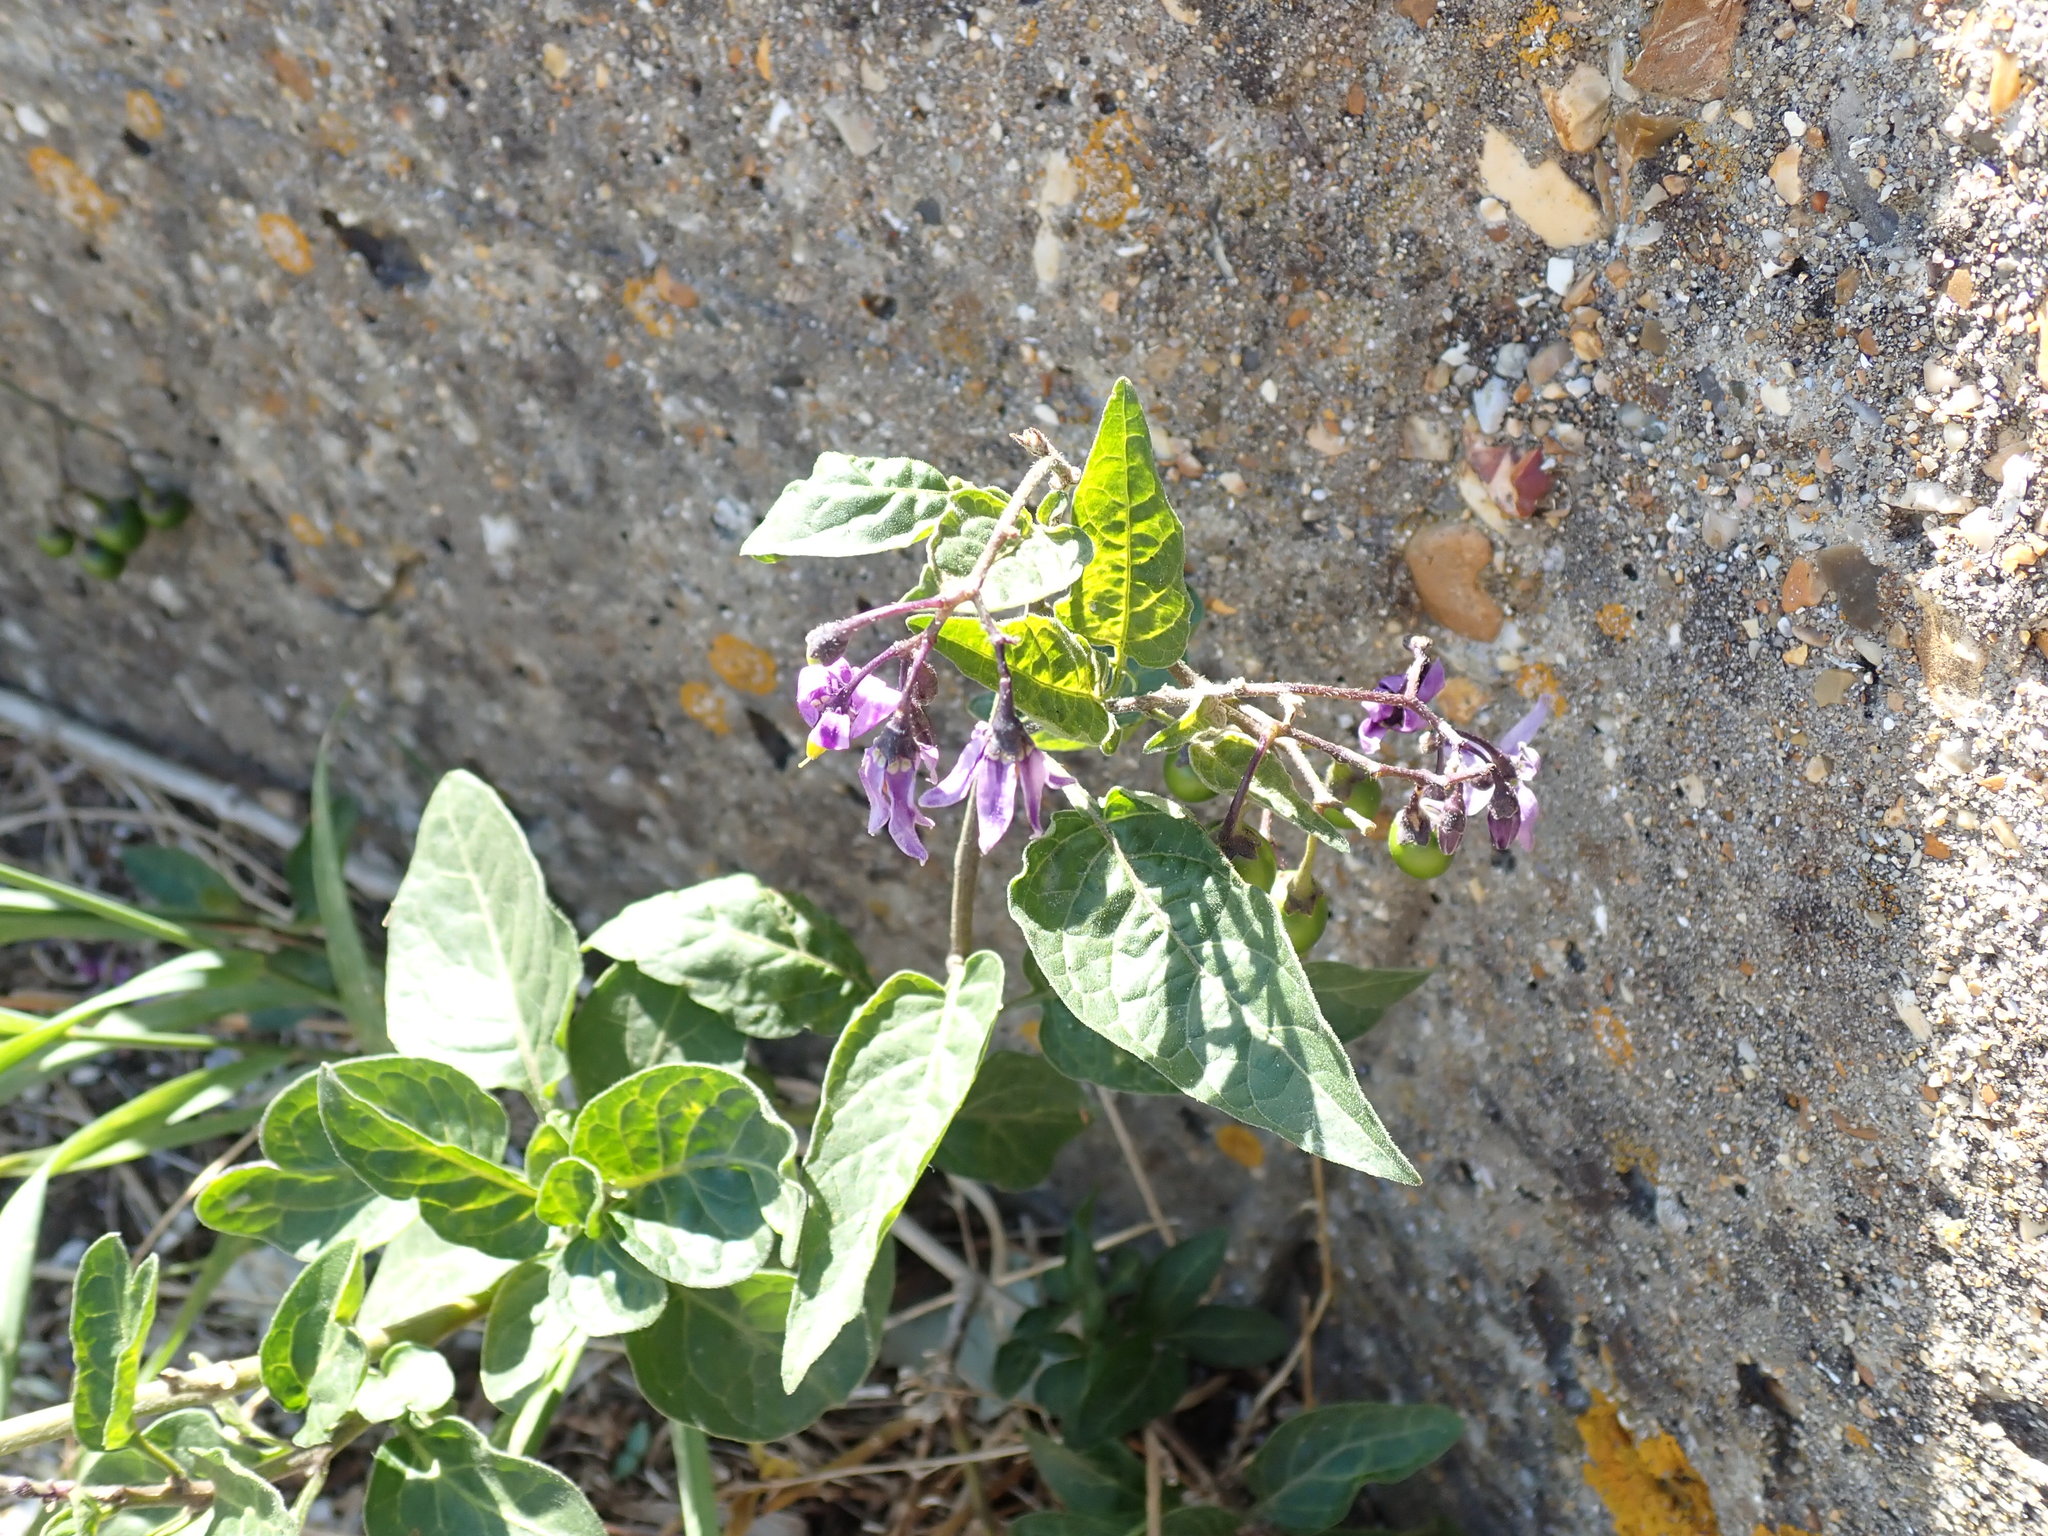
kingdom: Plantae
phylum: Tracheophyta
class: Magnoliopsida
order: Solanales
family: Solanaceae
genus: Solanum
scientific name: Solanum dulcamara
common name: Climbing nightshade
